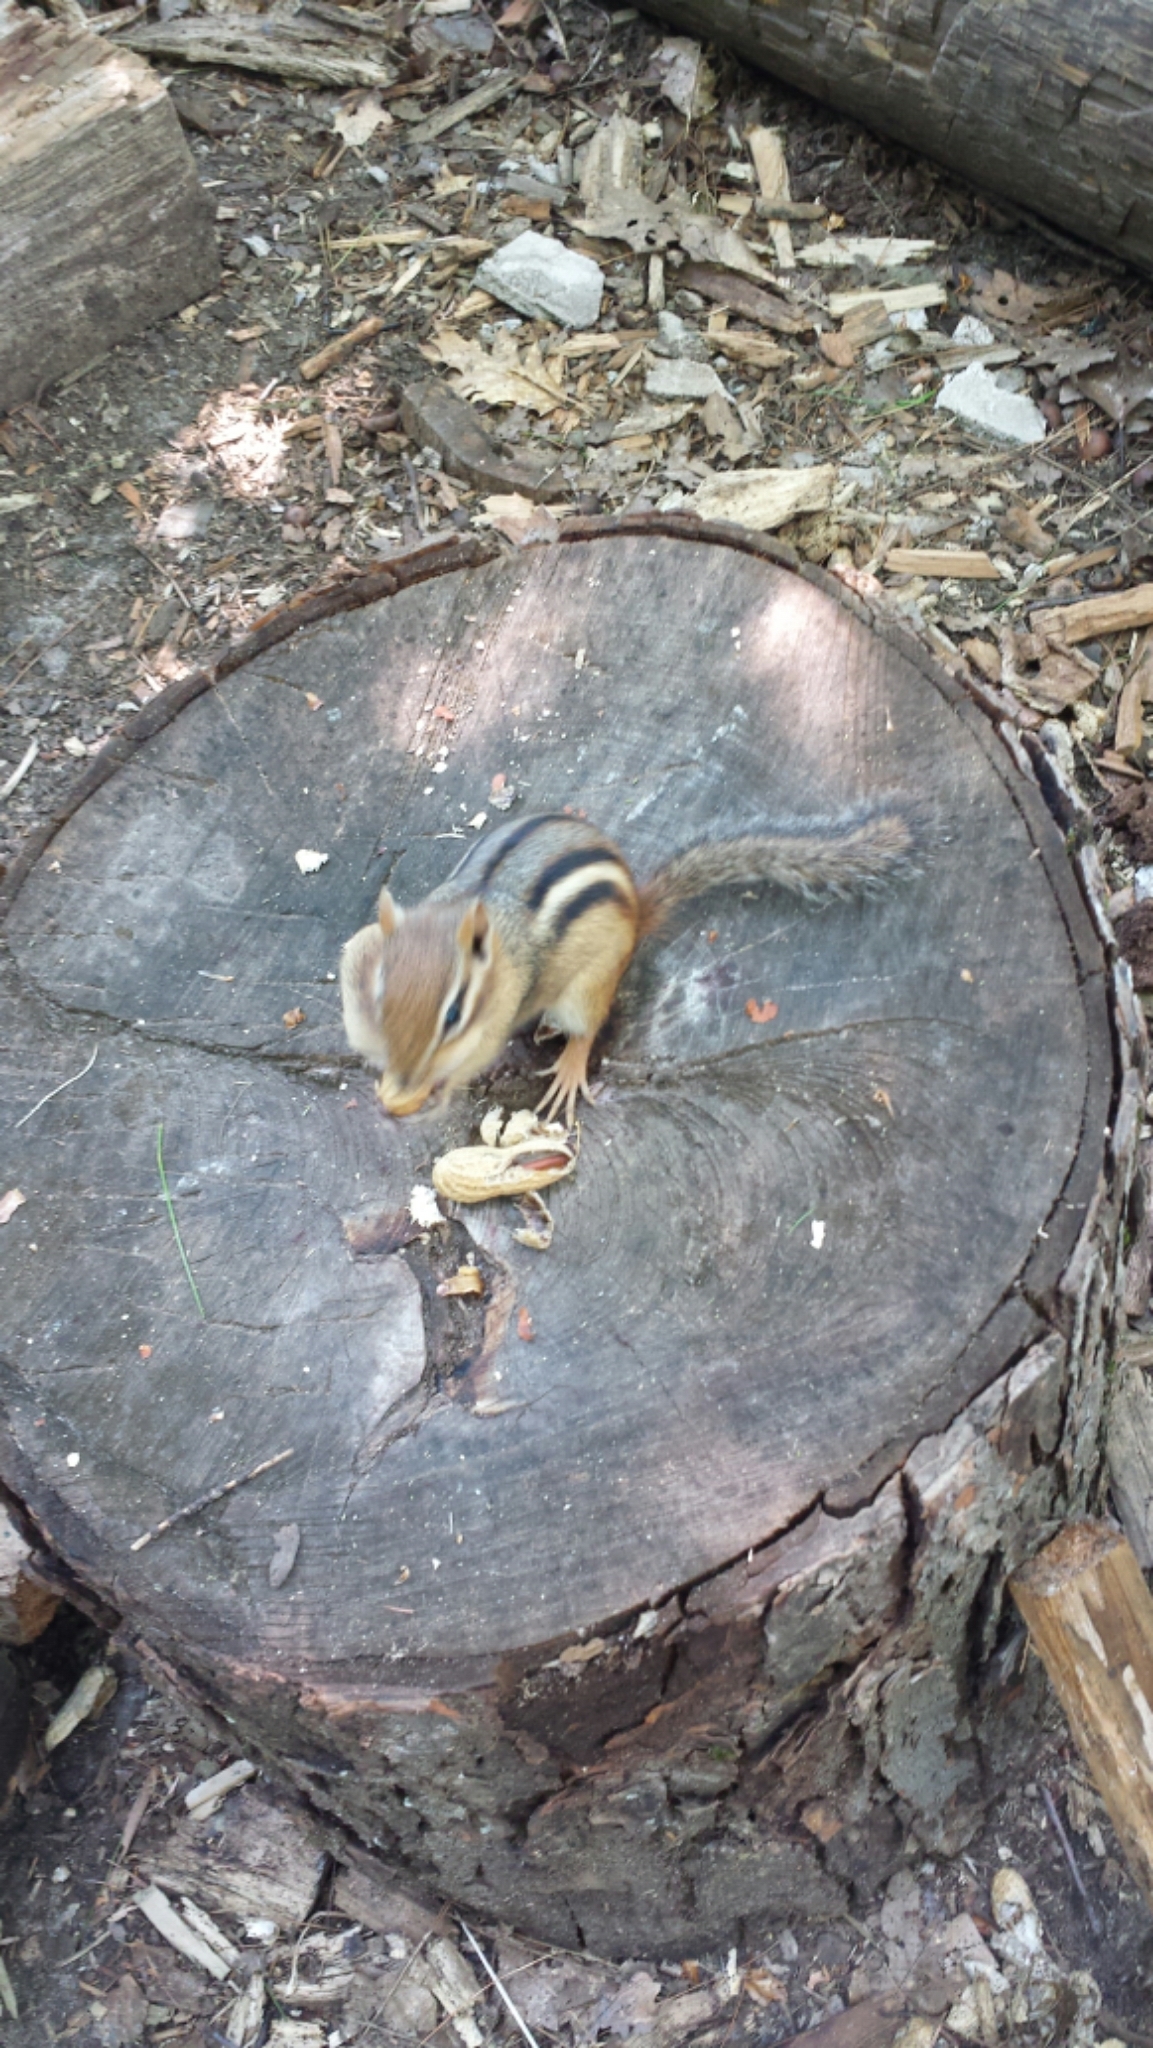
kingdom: Animalia
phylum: Chordata
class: Mammalia
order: Rodentia
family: Sciuridae
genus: Tamias
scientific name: Tamias striatus
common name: Eastern chipmunk
